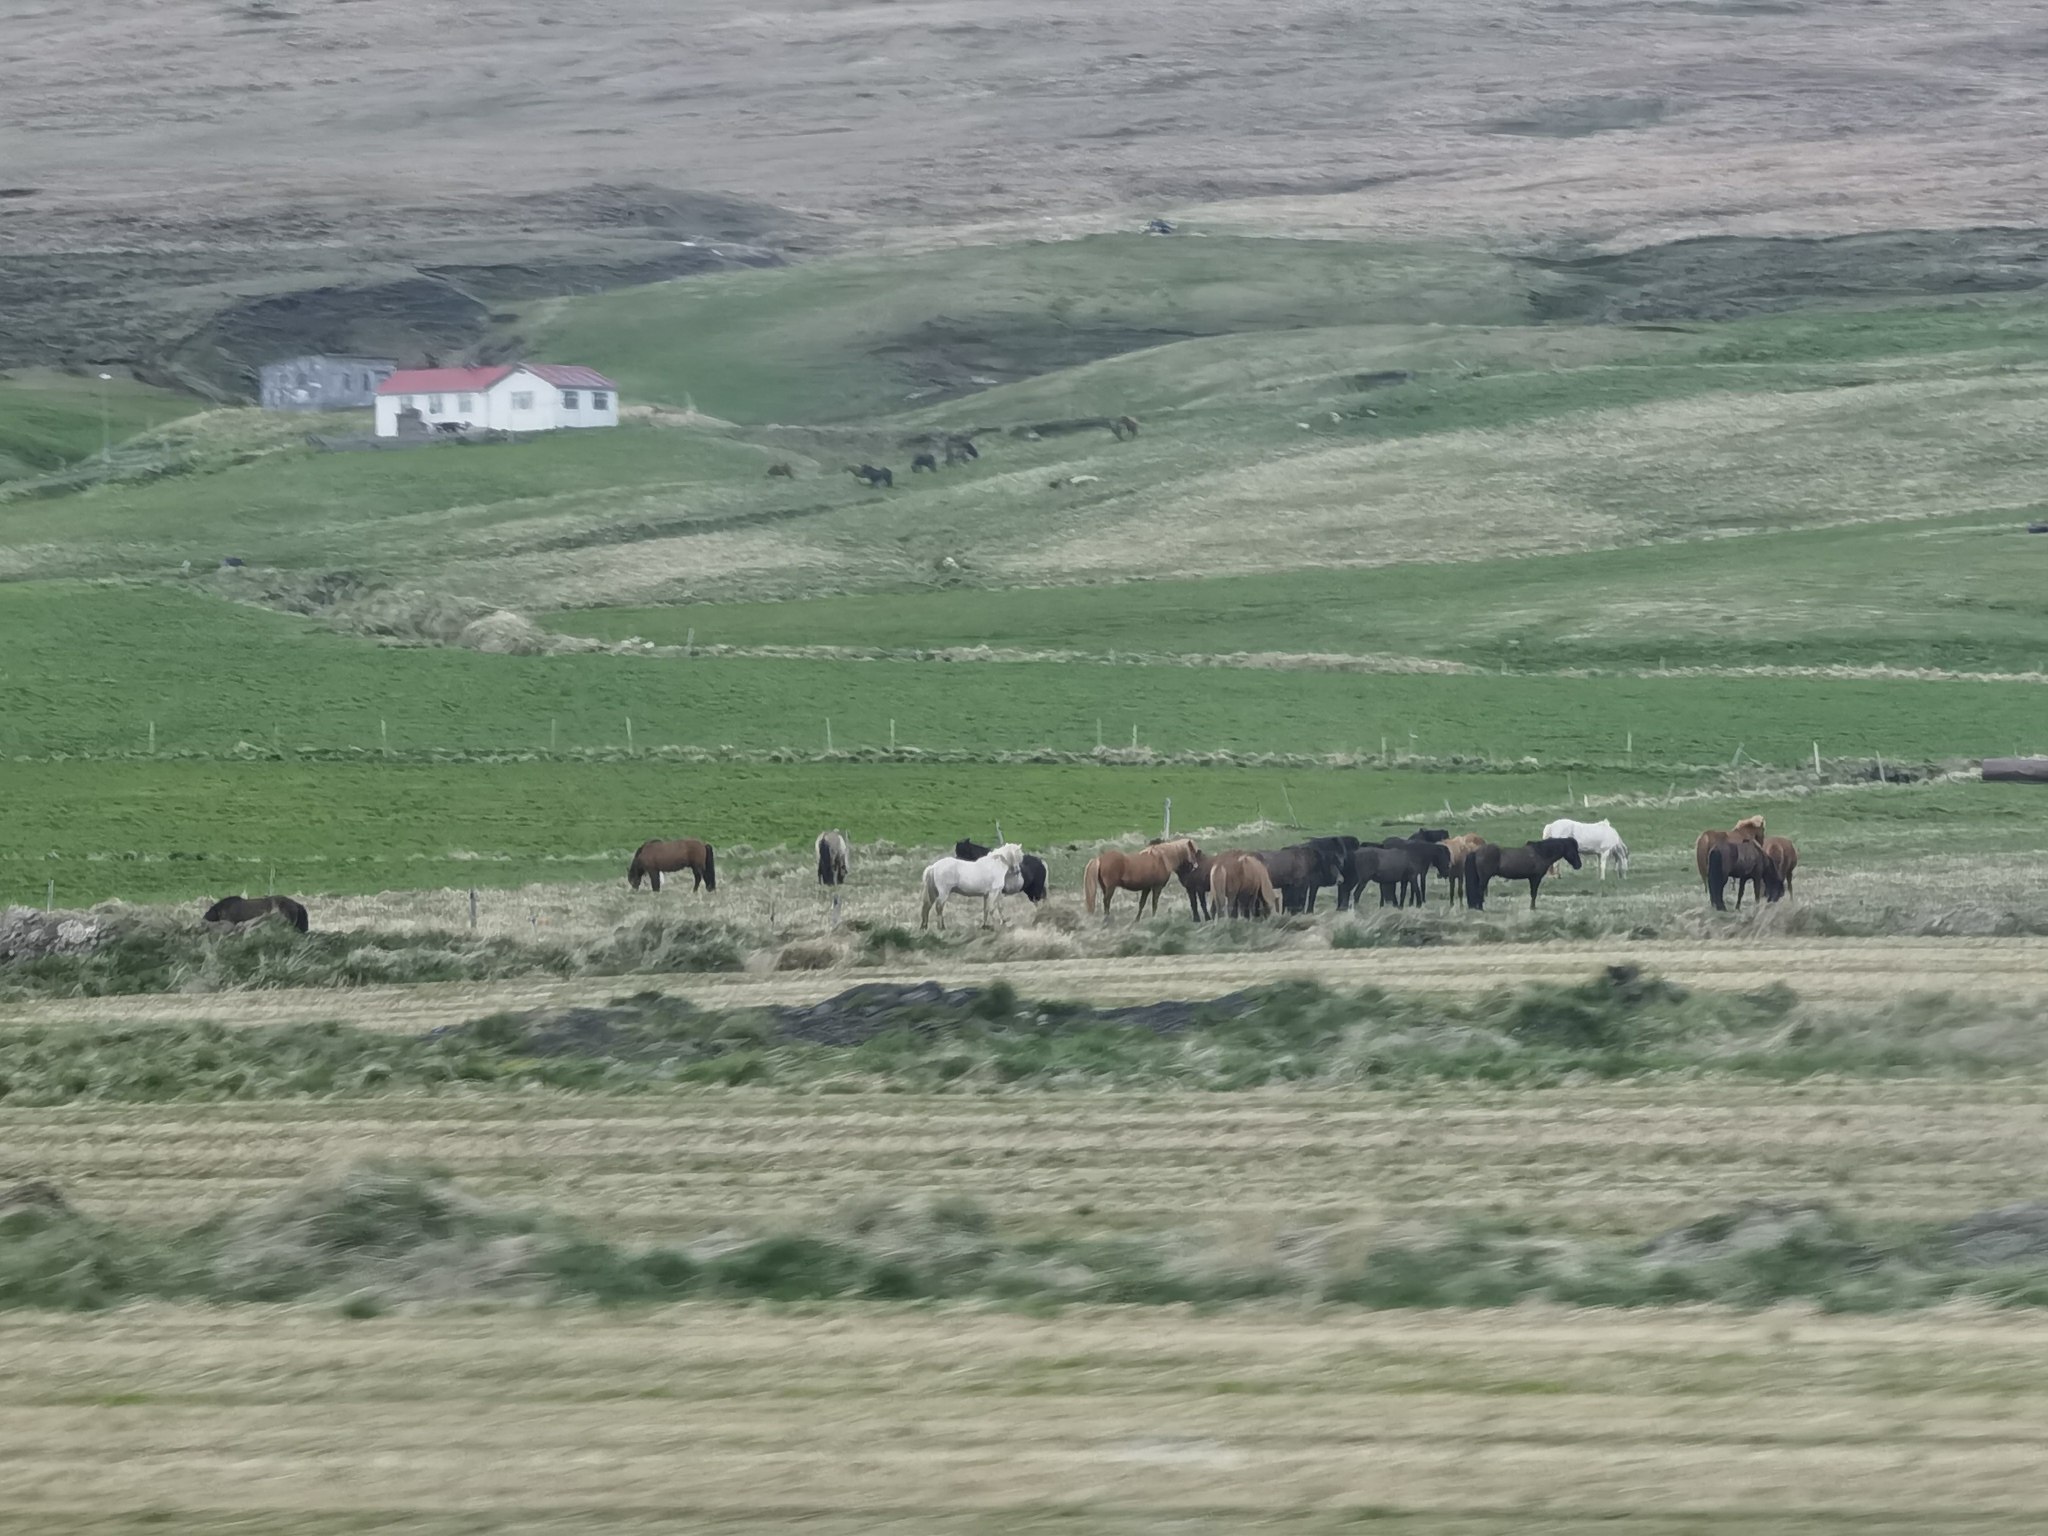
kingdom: Animalia
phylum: Chordata
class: Mammalia
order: Perissodactyla
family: Equidae
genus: Equus
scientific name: Equus caballus
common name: Horse
